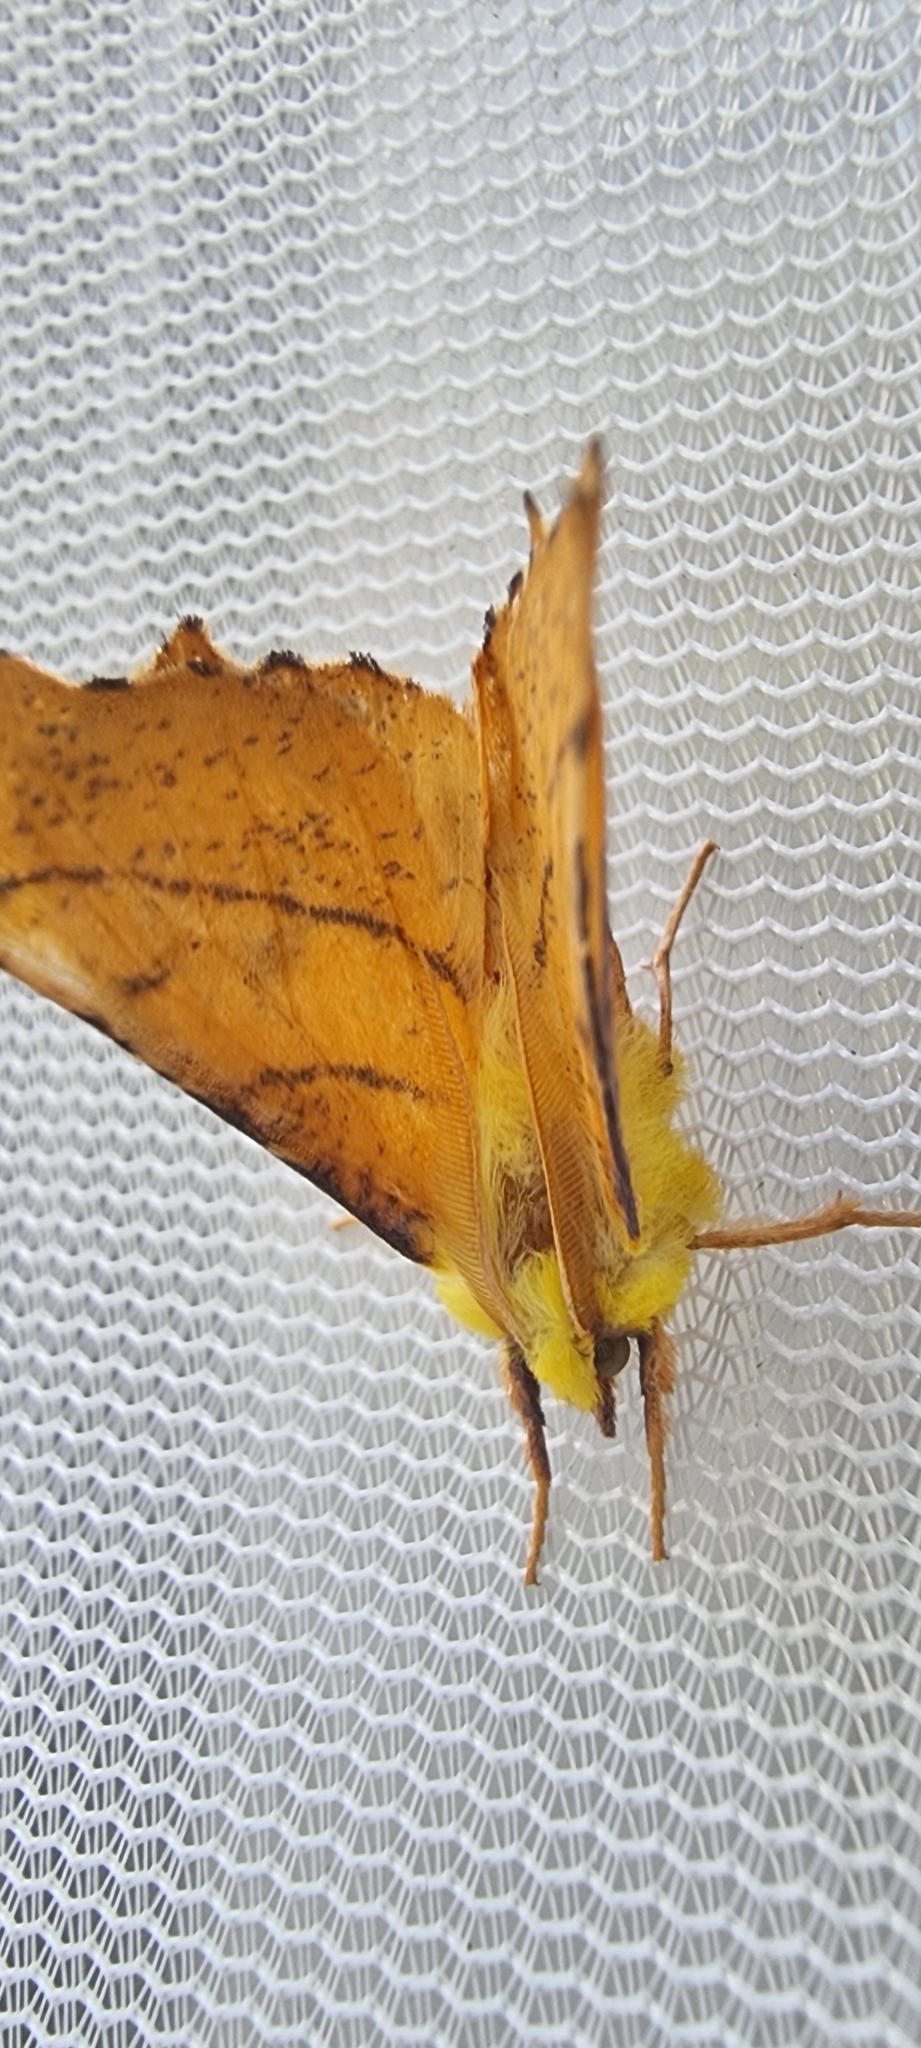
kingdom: Animalia
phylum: Arthropoda
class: Insecta
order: Lepidoptera
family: Geometridae
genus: Ennomos
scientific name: Ennomos alniaria
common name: Canary-shouldered thorn
